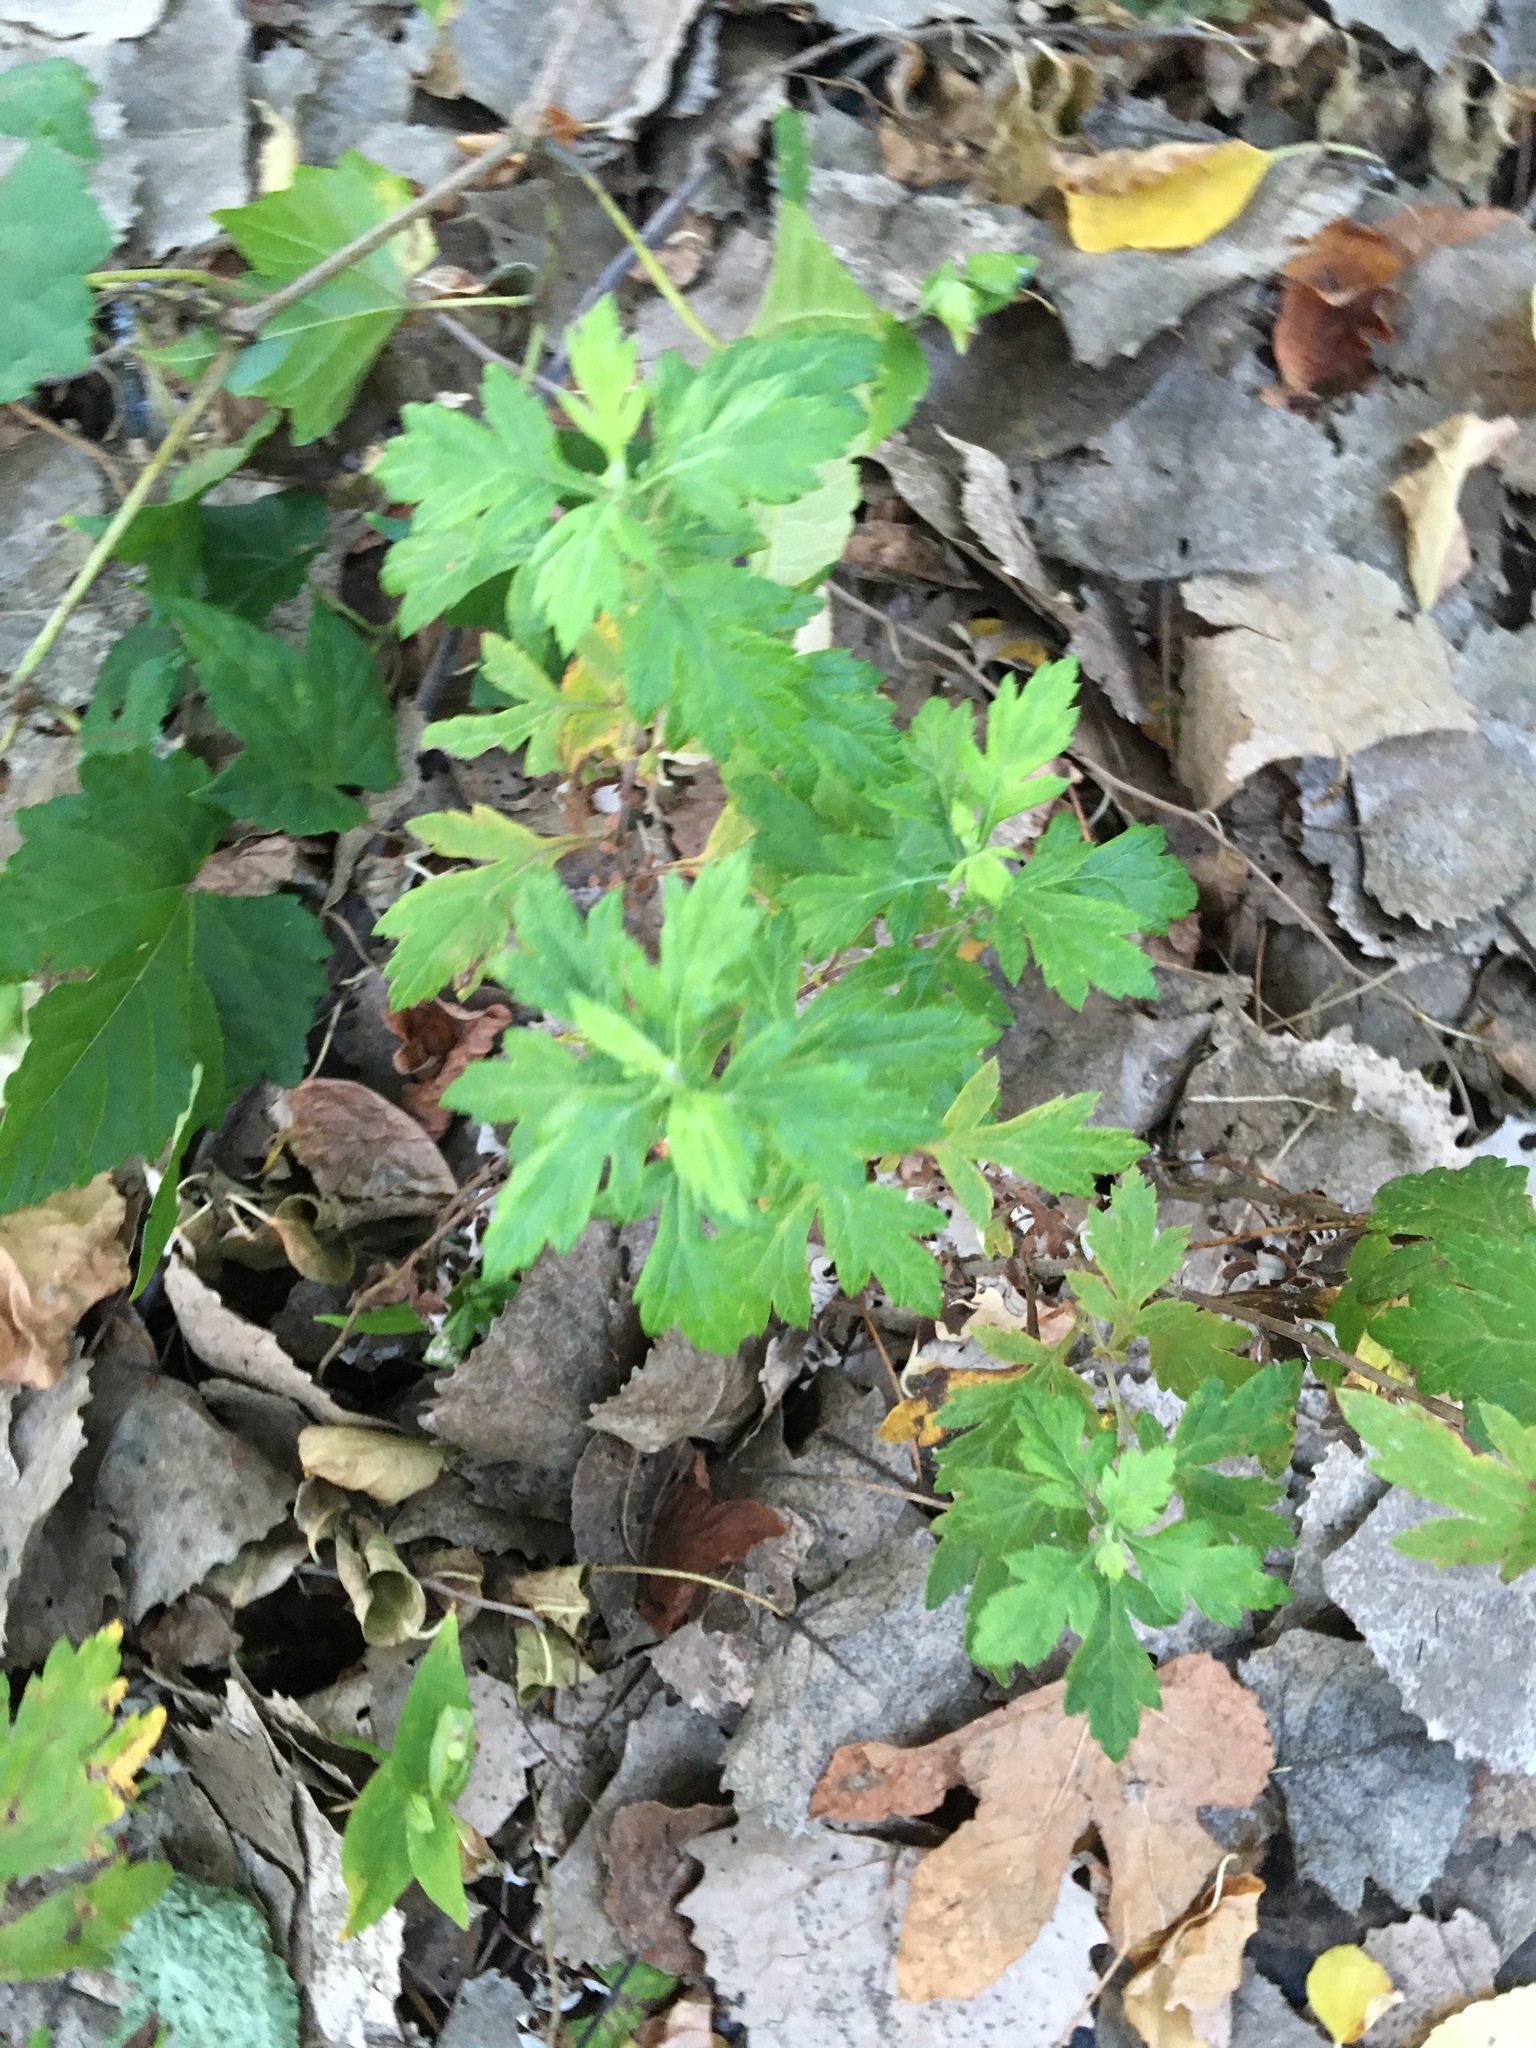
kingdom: Plantae
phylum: Tracheophyta
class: Magnoliopsida
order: Asterales
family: Asteraceae
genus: Artemisia
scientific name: Artemisia vulgaris
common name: Mugwort
